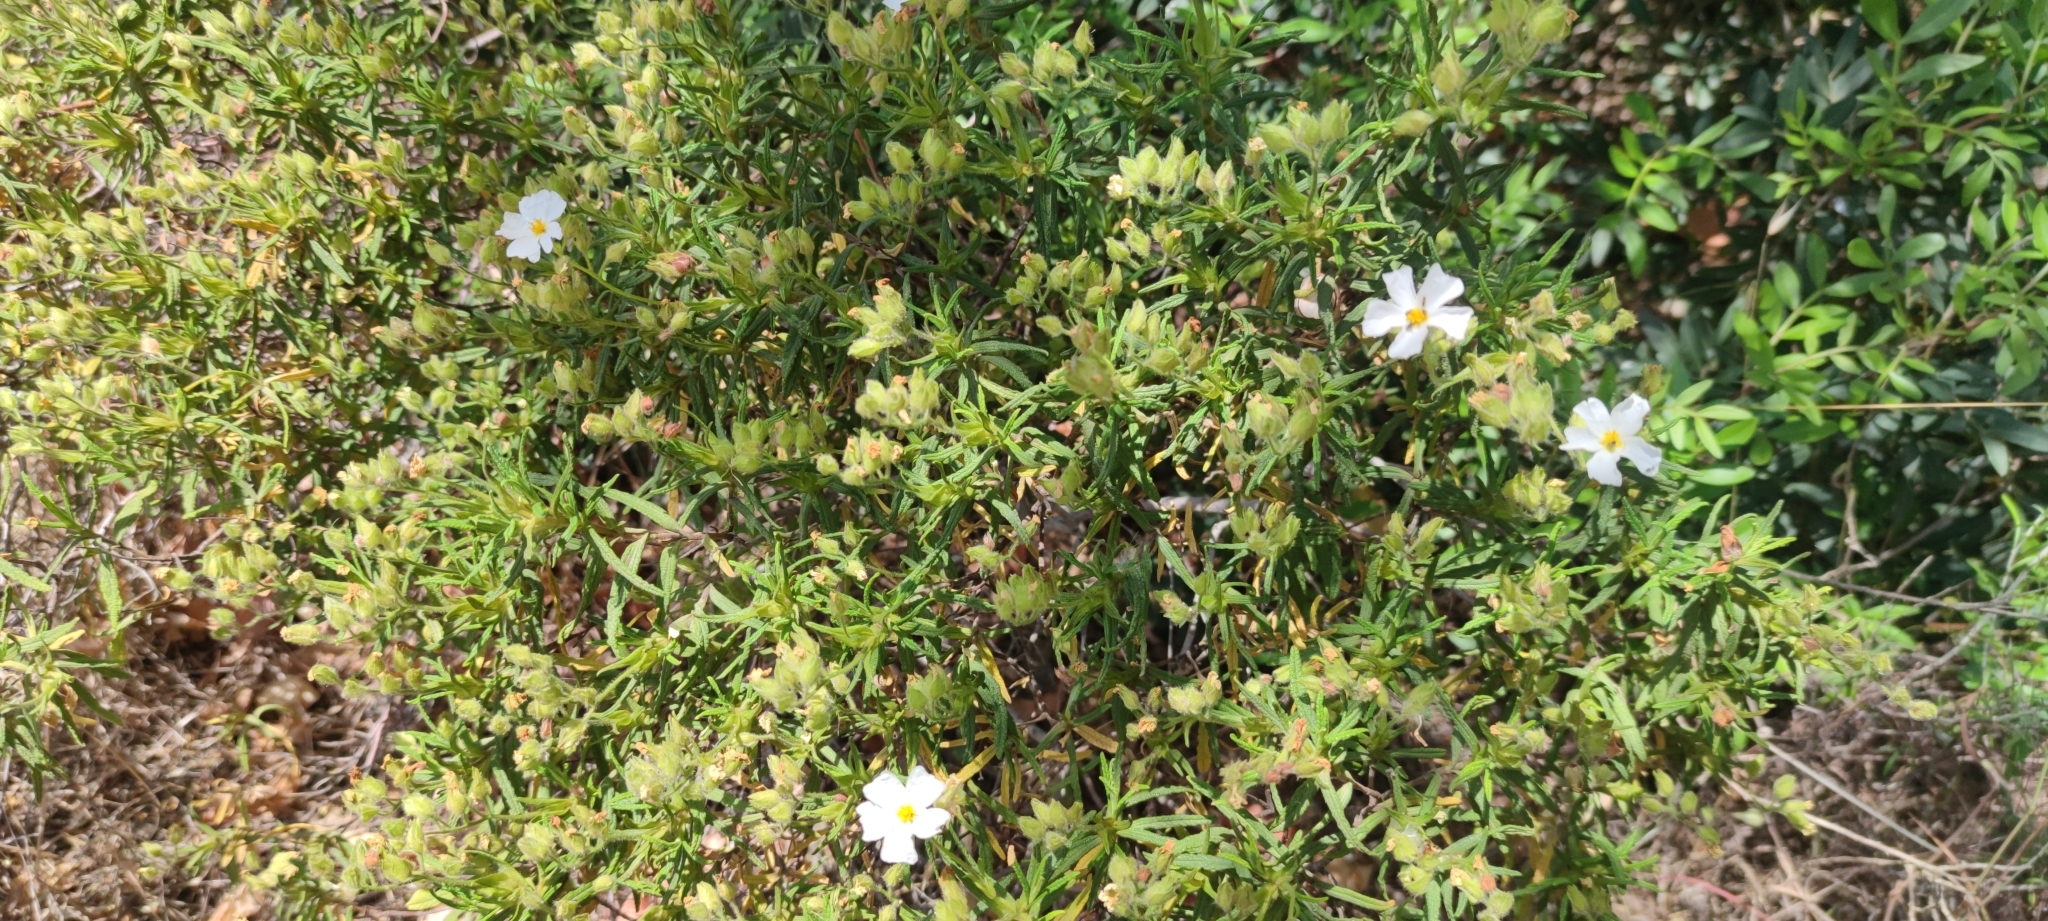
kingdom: Plantae
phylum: Tracheophyta
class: Magnoliopsida
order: Malvales
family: Cistaceae
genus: Cistus
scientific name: Cistus monspeliensis
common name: Montpelier cistus
